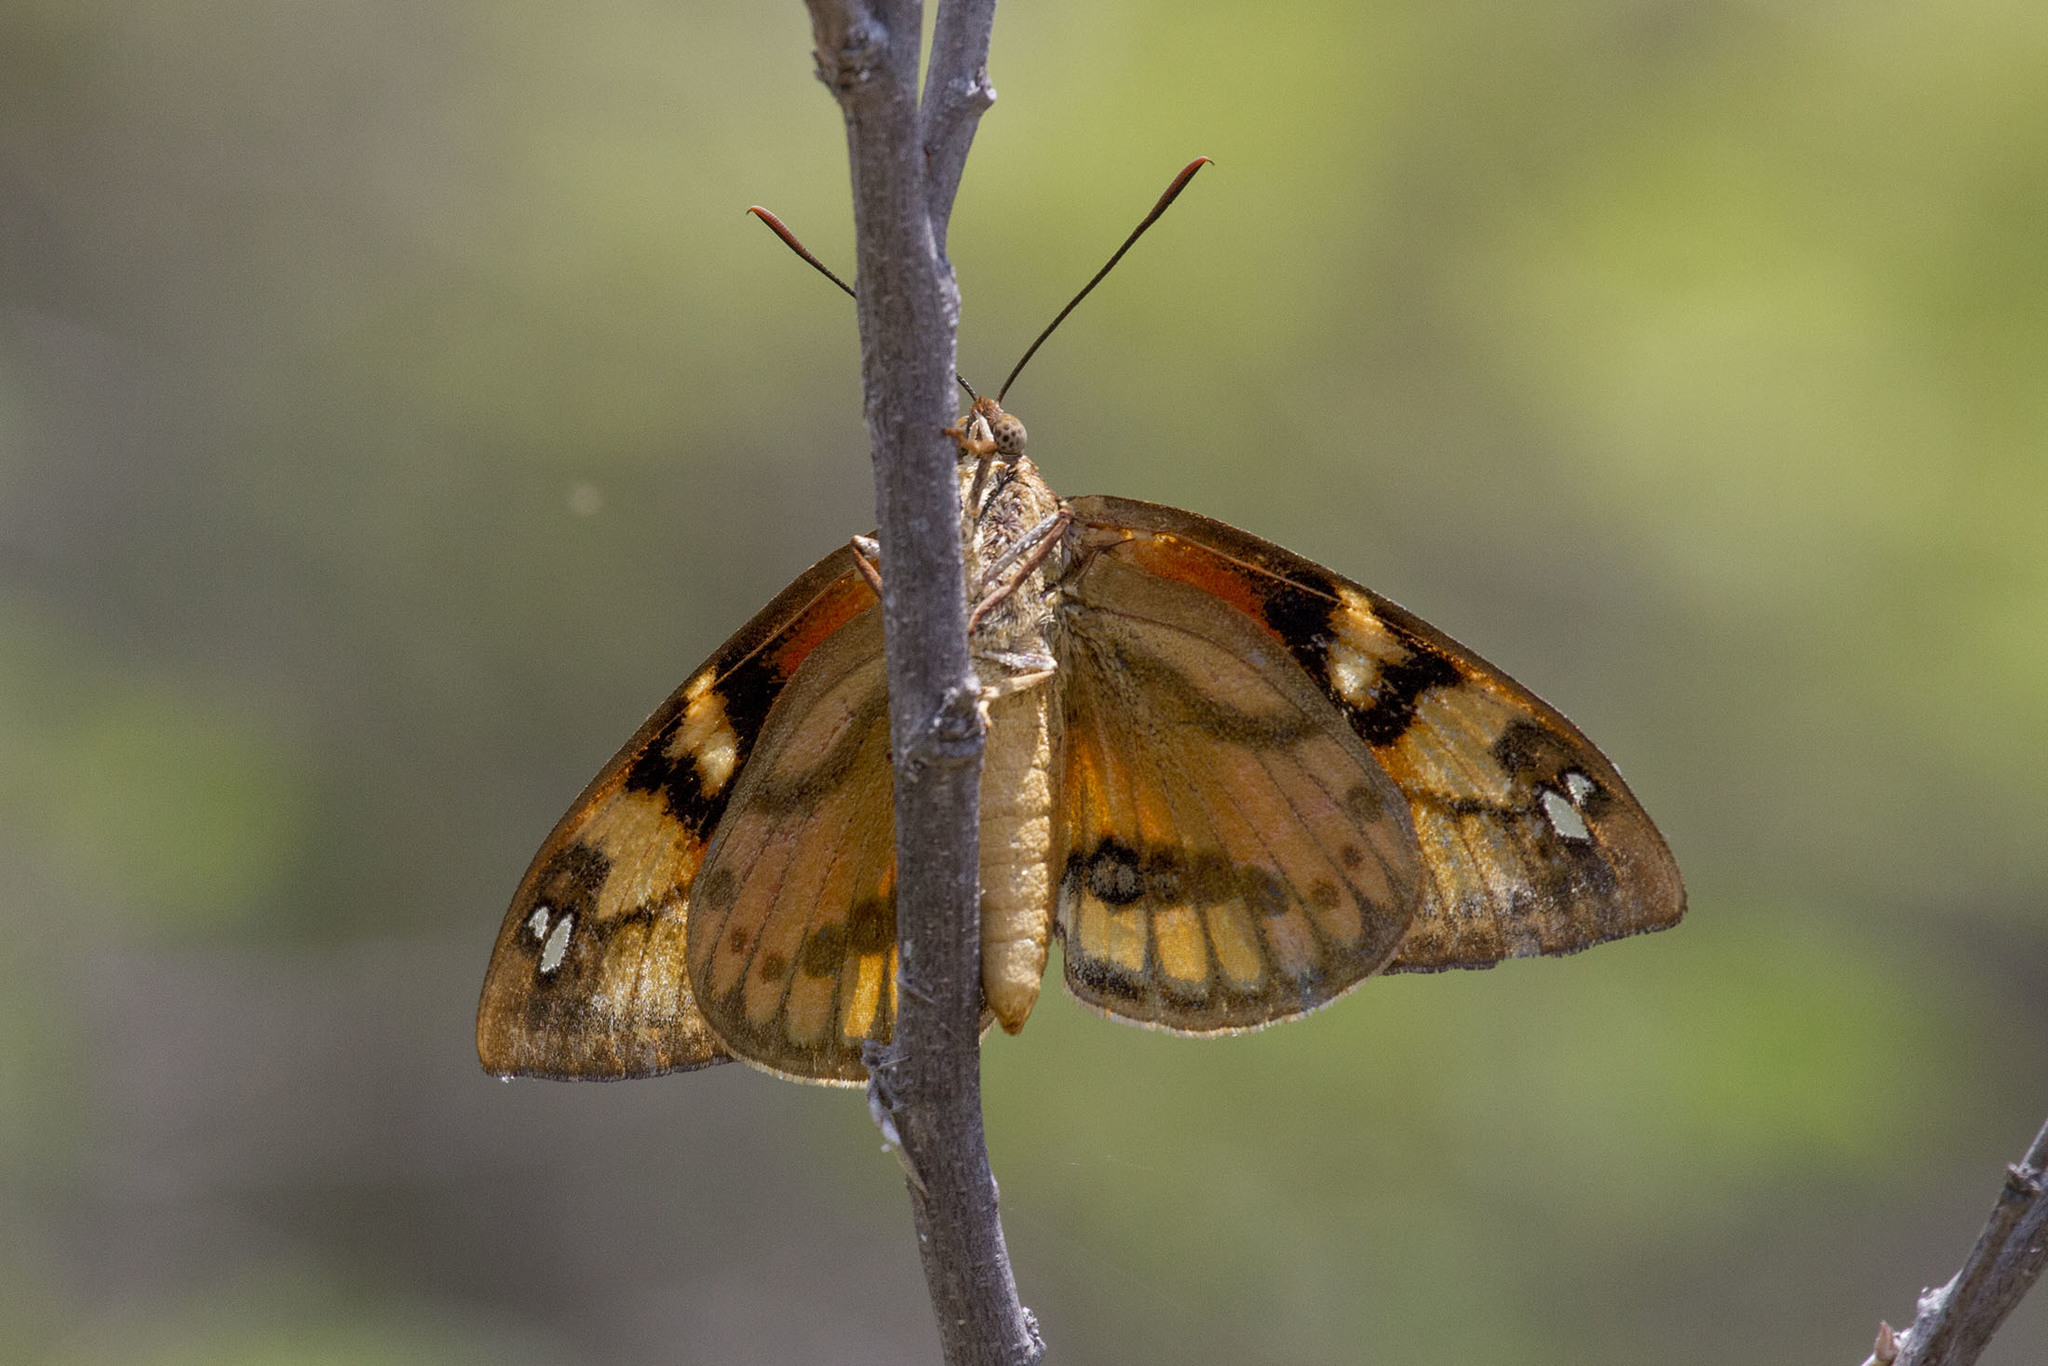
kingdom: Animalia
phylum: Arthropoda
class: Insecta
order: Lepidoptera
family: Castniidae
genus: Athis
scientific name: Athis inca
